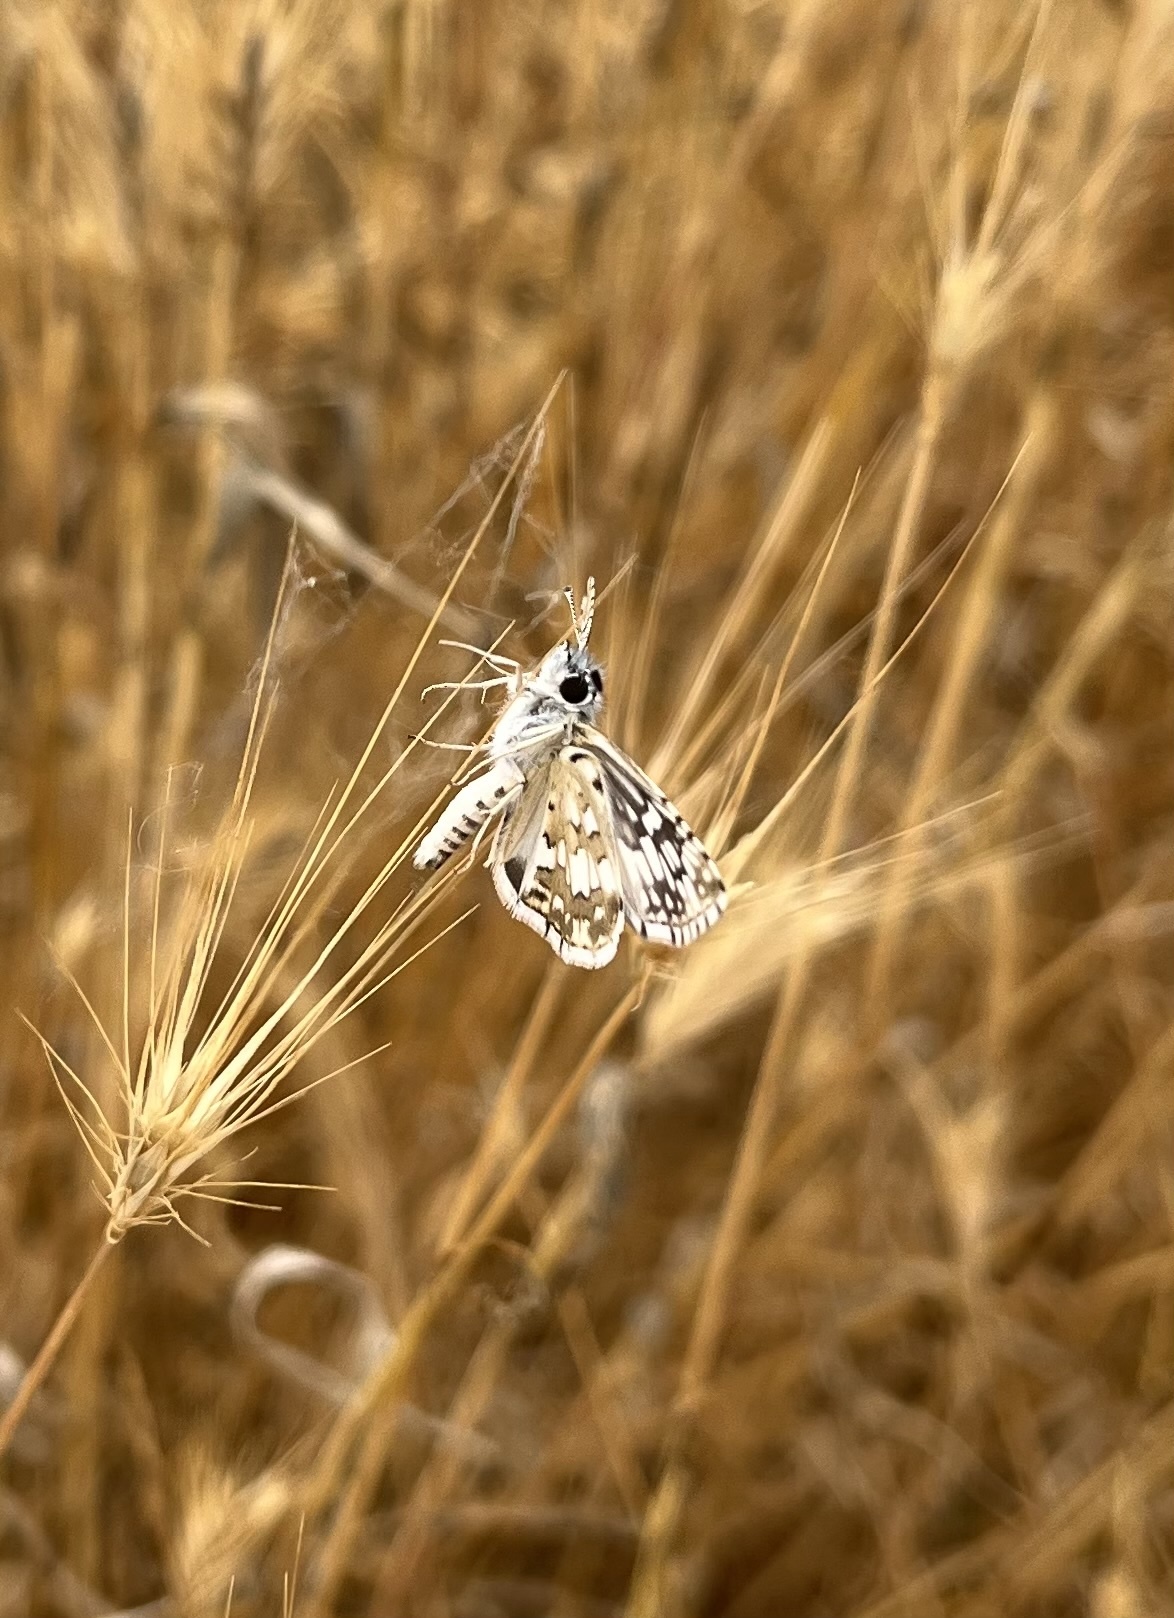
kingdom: Animalia
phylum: Arthropoda
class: Insecta
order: Lepidoptera
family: Hesperiidae
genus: Burnsius
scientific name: Burnsius albezens
